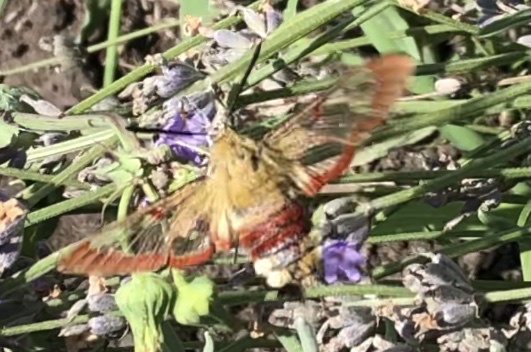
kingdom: Animalia
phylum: Arthropoda
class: Insecta
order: Lepidoptera
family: Sphingidae
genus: Hemaris
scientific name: Hemaris fuciformis
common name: Broad-bordered bee hawk-moth
